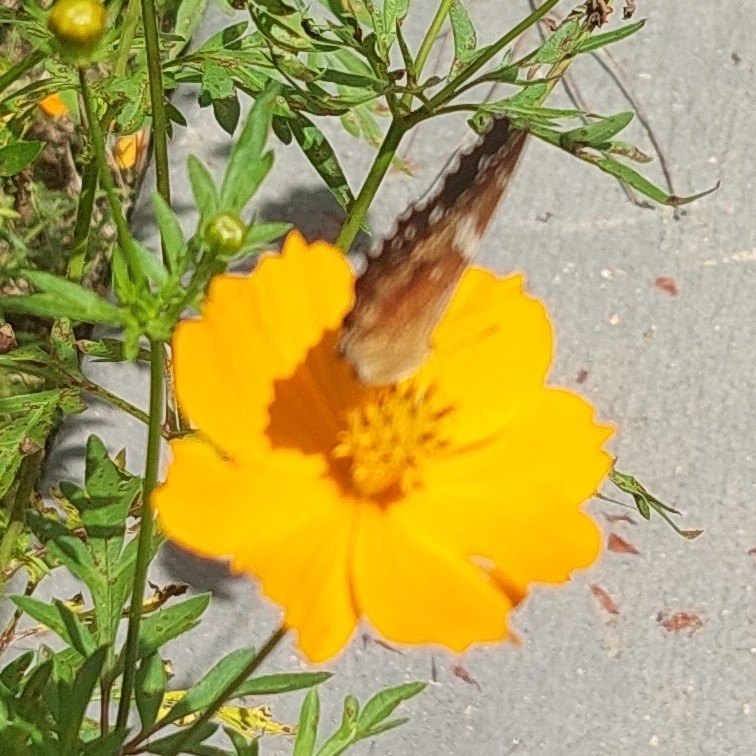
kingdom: Animalia
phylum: Arthropoda
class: Insecta
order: Lepidoptera
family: Nymphalidae
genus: Anartia
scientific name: Anartia amathea
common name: Red peacock
